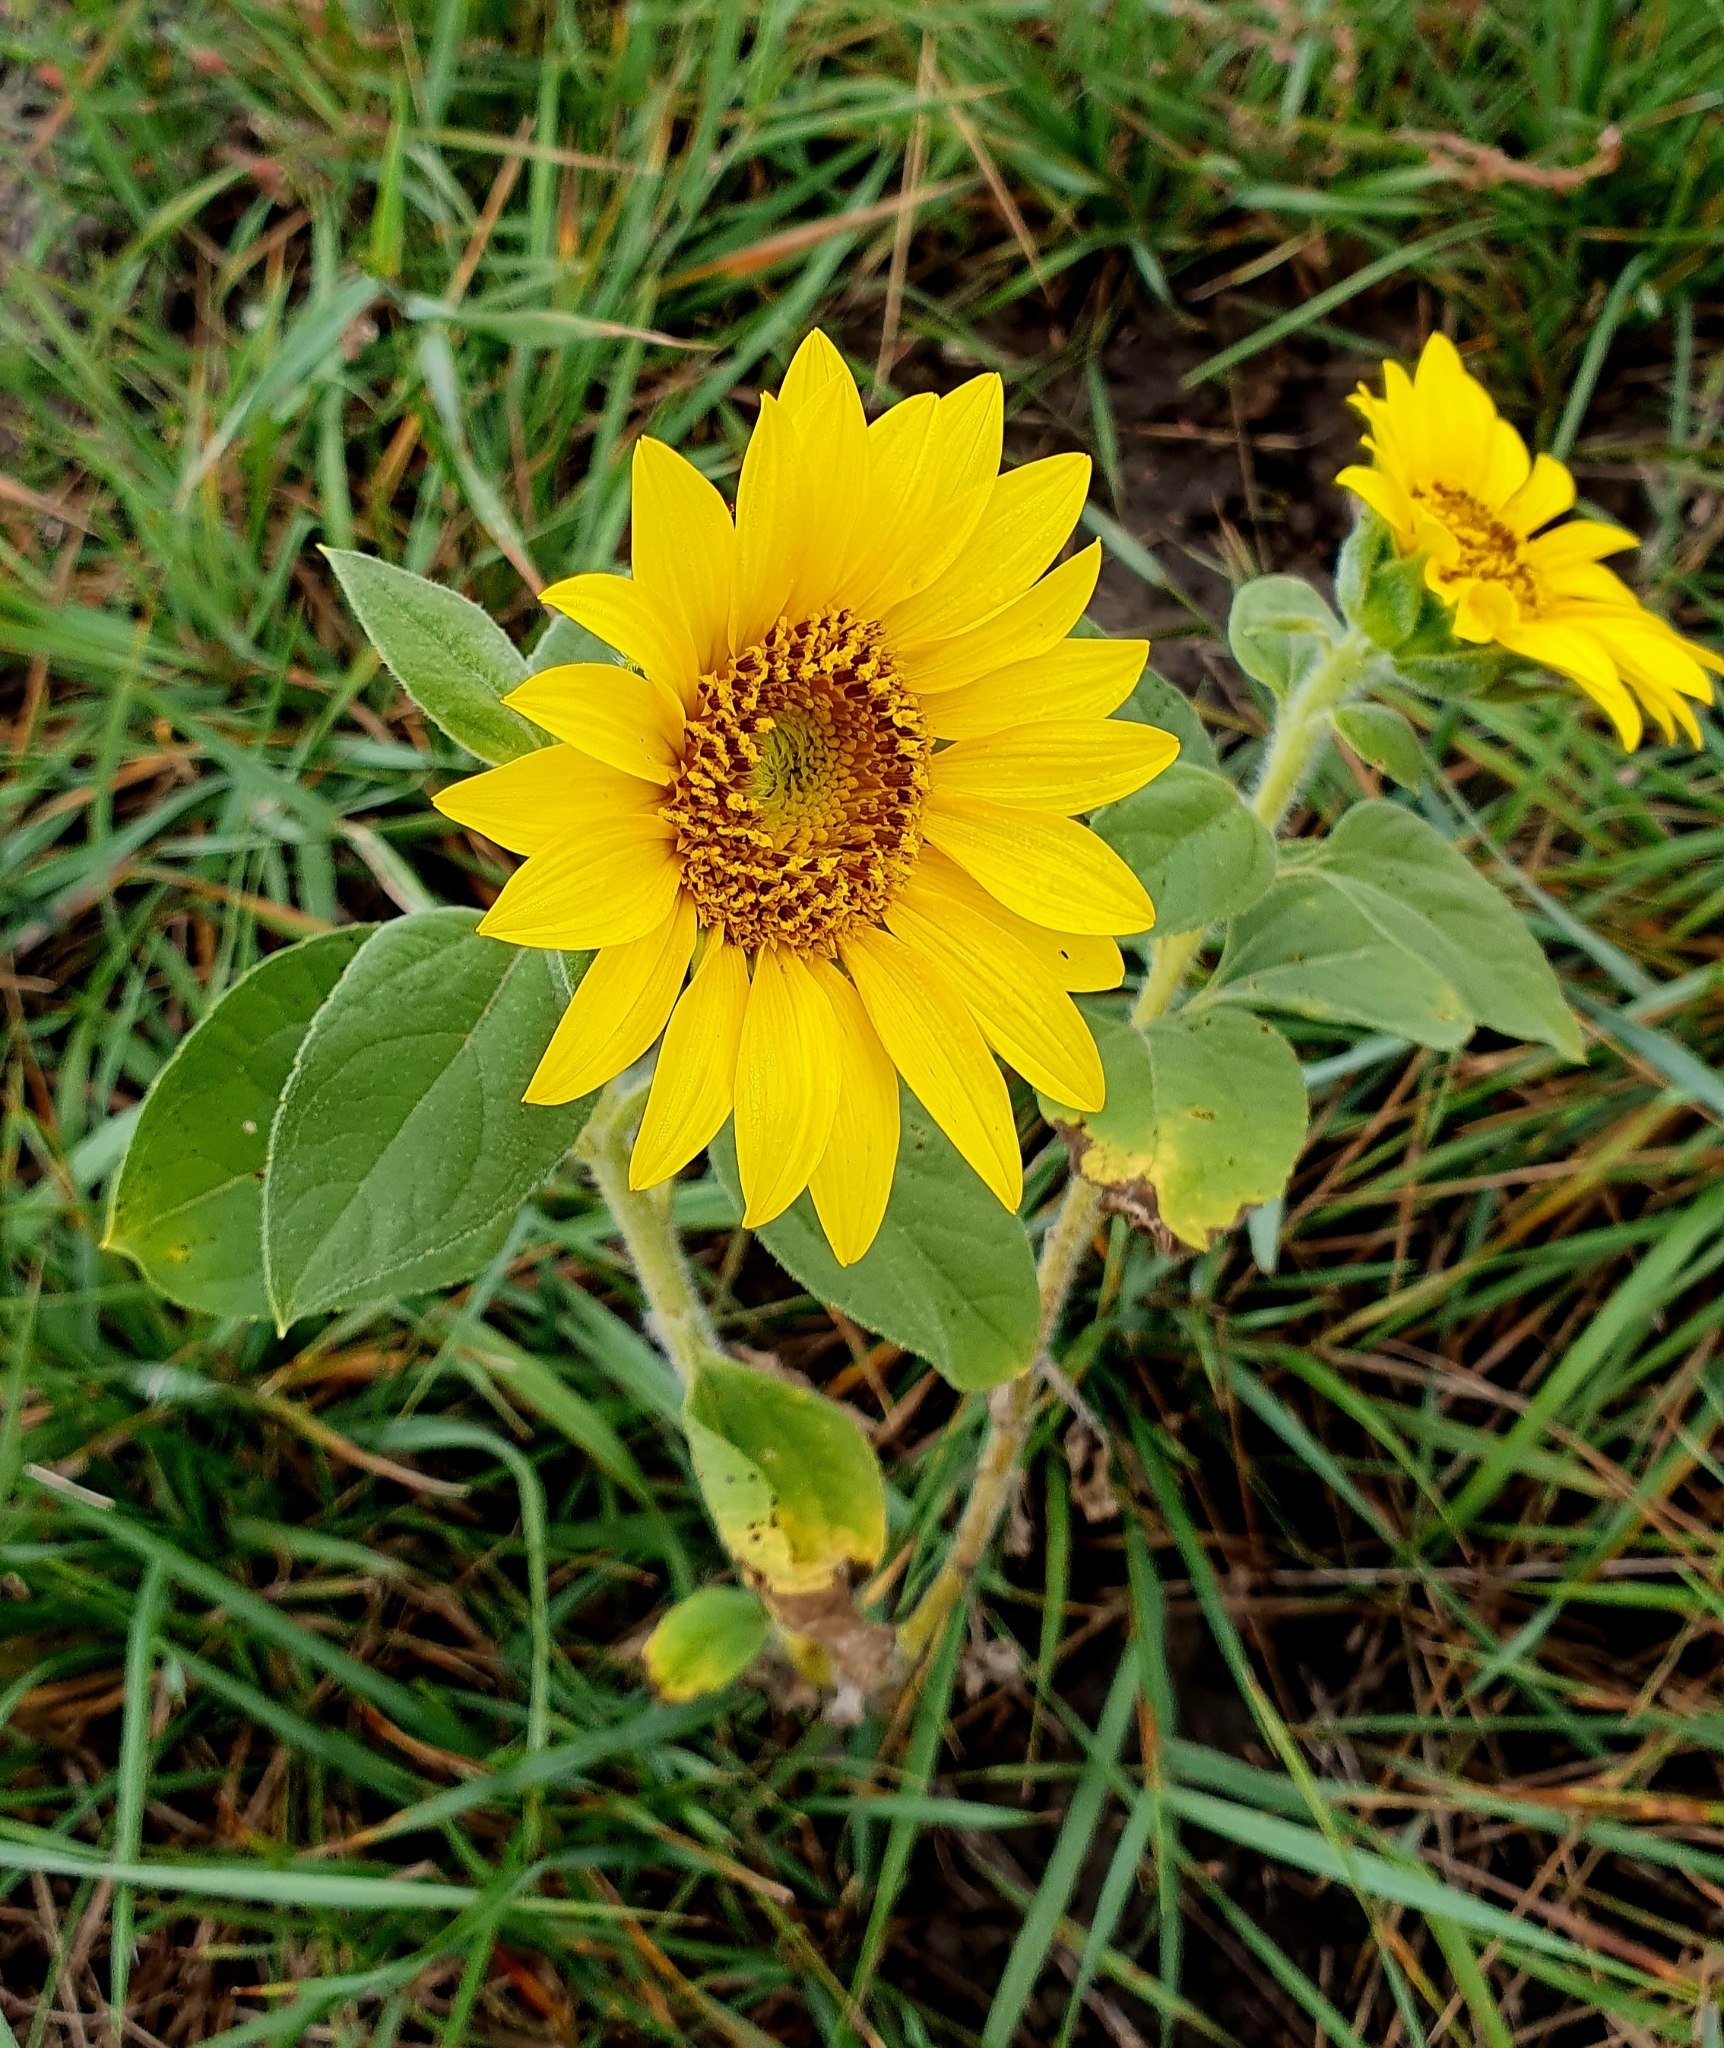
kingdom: Plantae
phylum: Tracheophyta
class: Magnoliopsida
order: Asterales
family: Asteraceae
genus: Helianthus
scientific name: Helianthus annuus
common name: Sunflower
